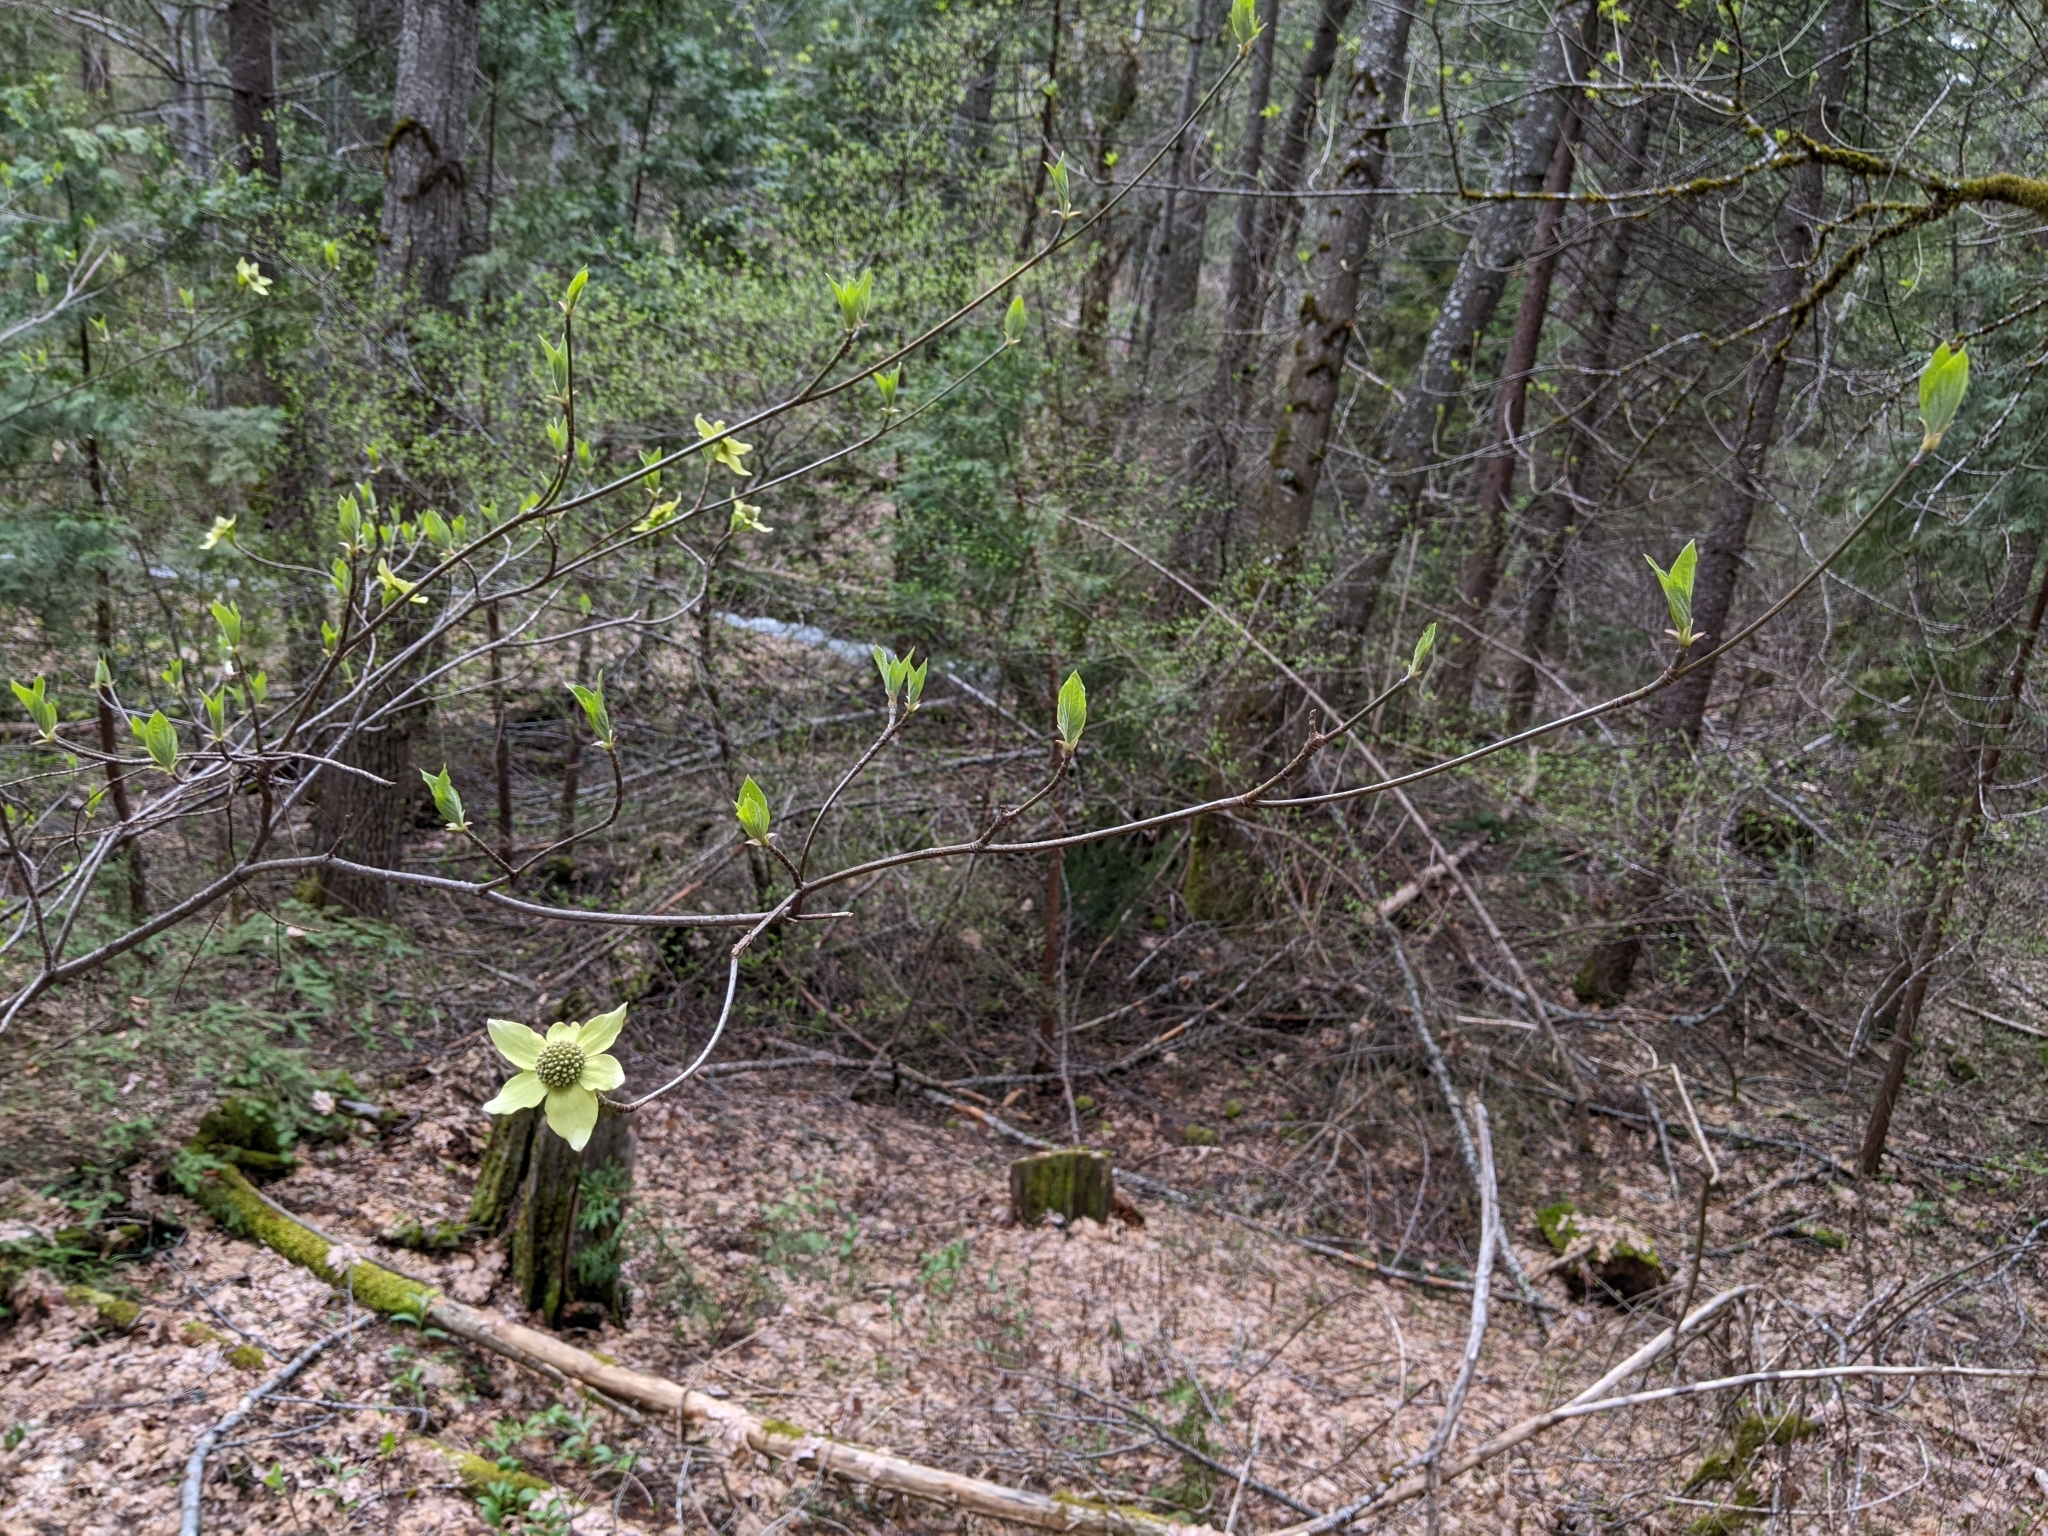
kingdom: Plantae
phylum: Tracheophyta
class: Magnoliopsida
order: Cornales
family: Cornaceae
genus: Cornus
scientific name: Cornus nuttallii
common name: Pacific dogwood
